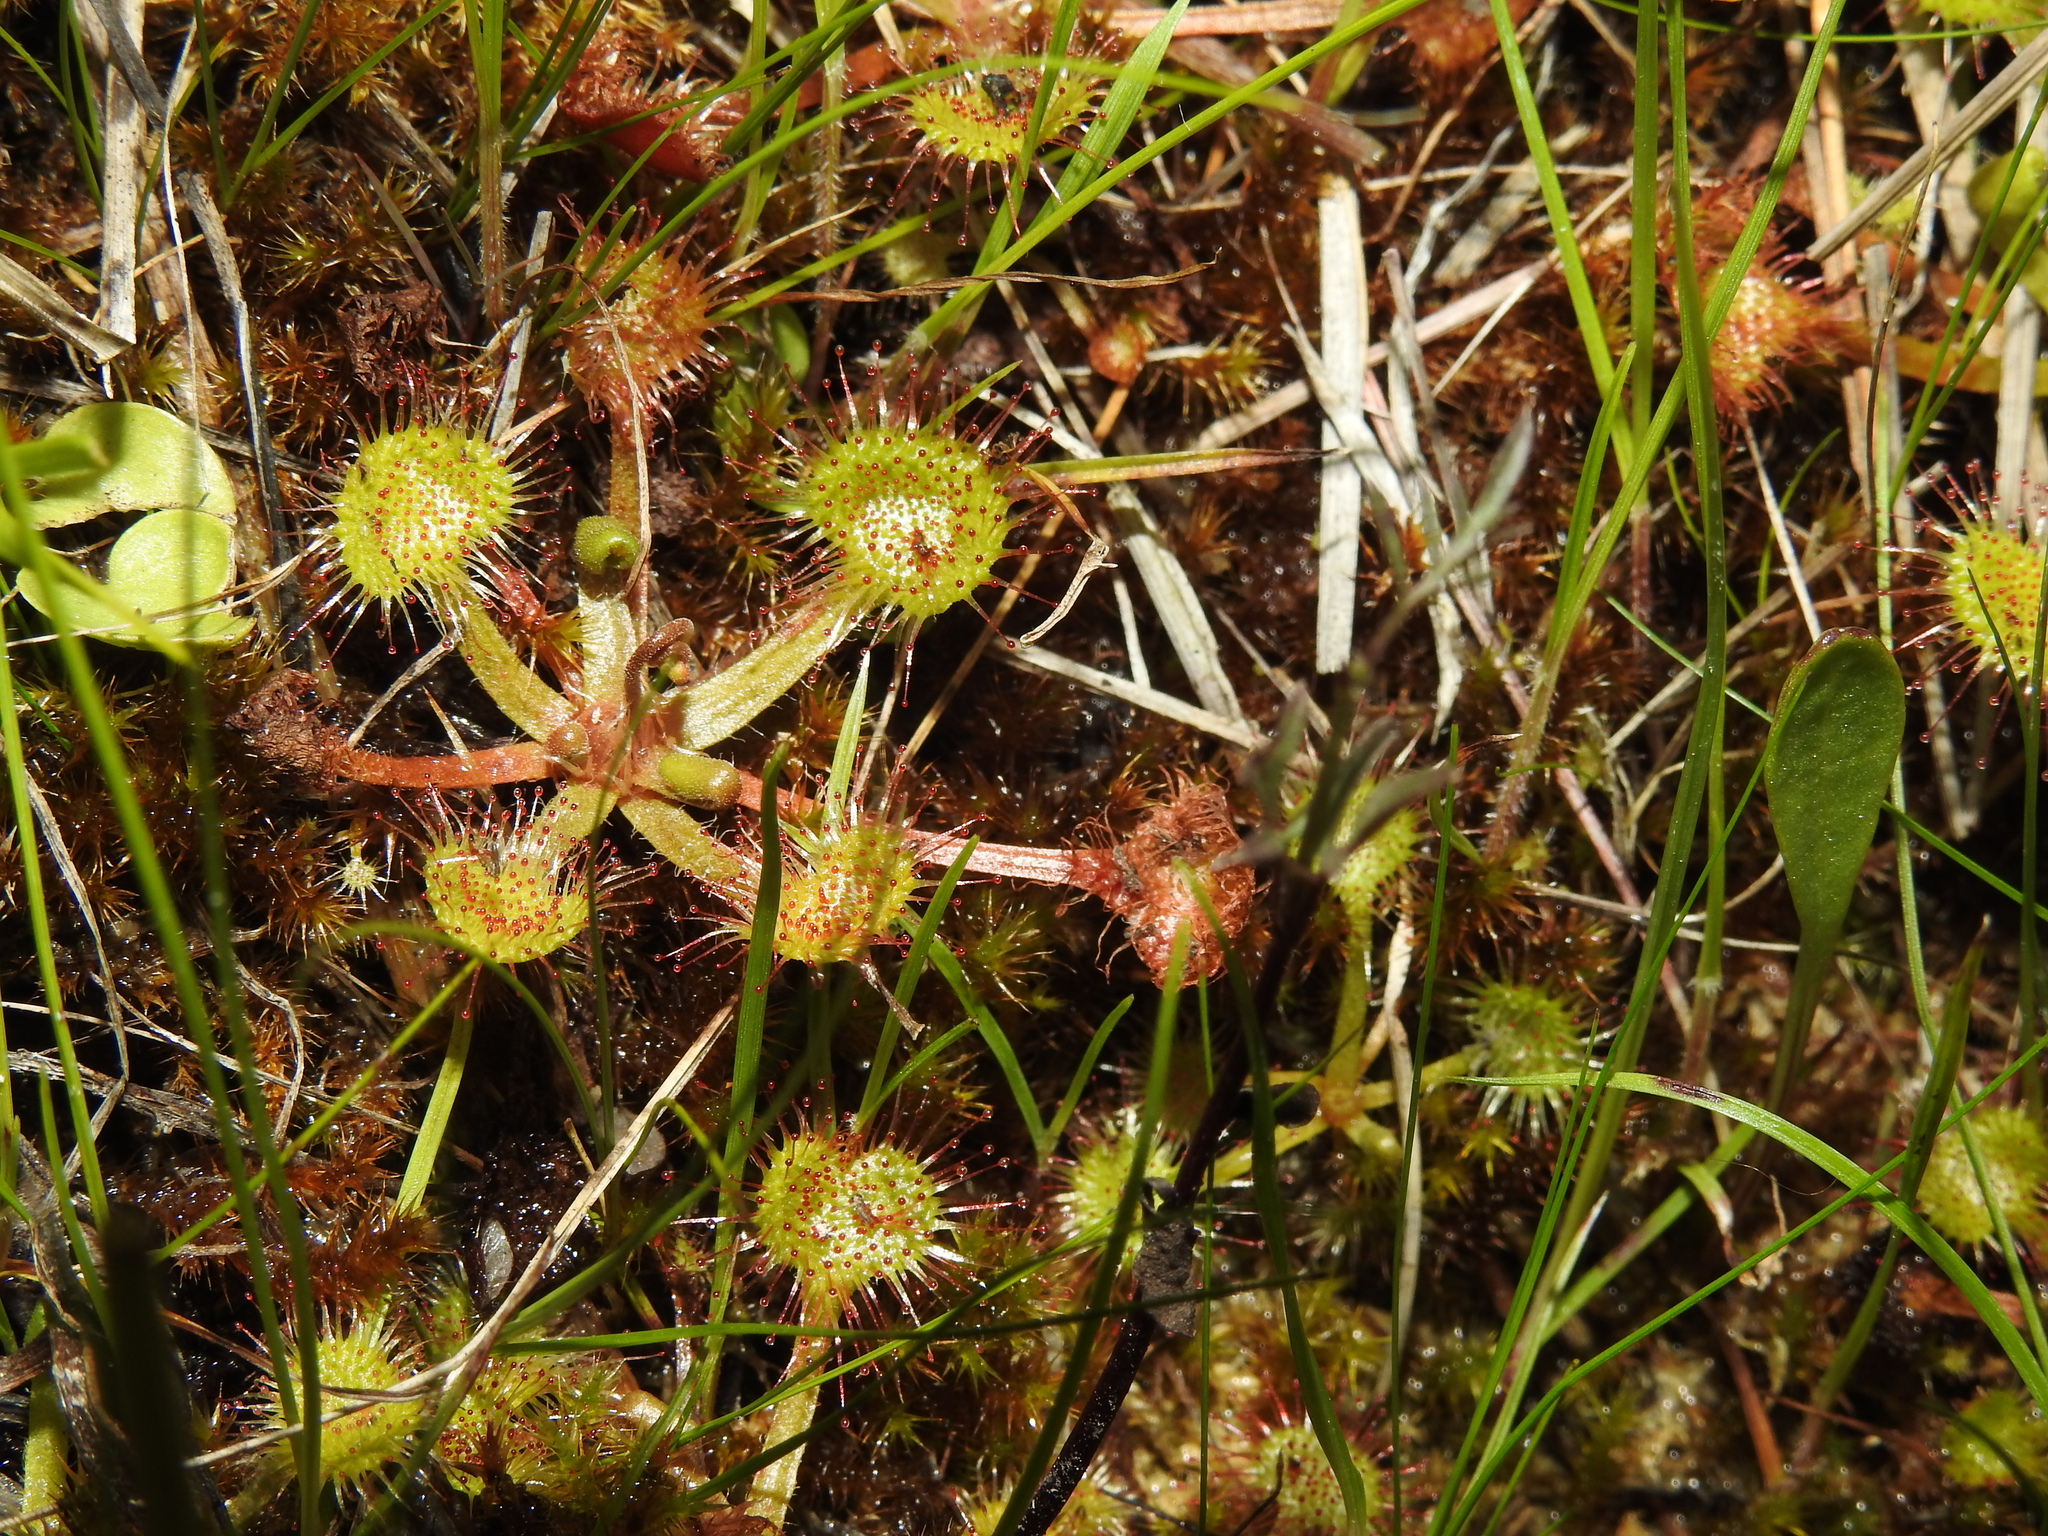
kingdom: Plantae
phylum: Tracheophyta
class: Magnoliopsida
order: Caryophyllales
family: Droseraceae
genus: Drosera
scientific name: Drosera rotundifolia
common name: Round-leaved sundew
